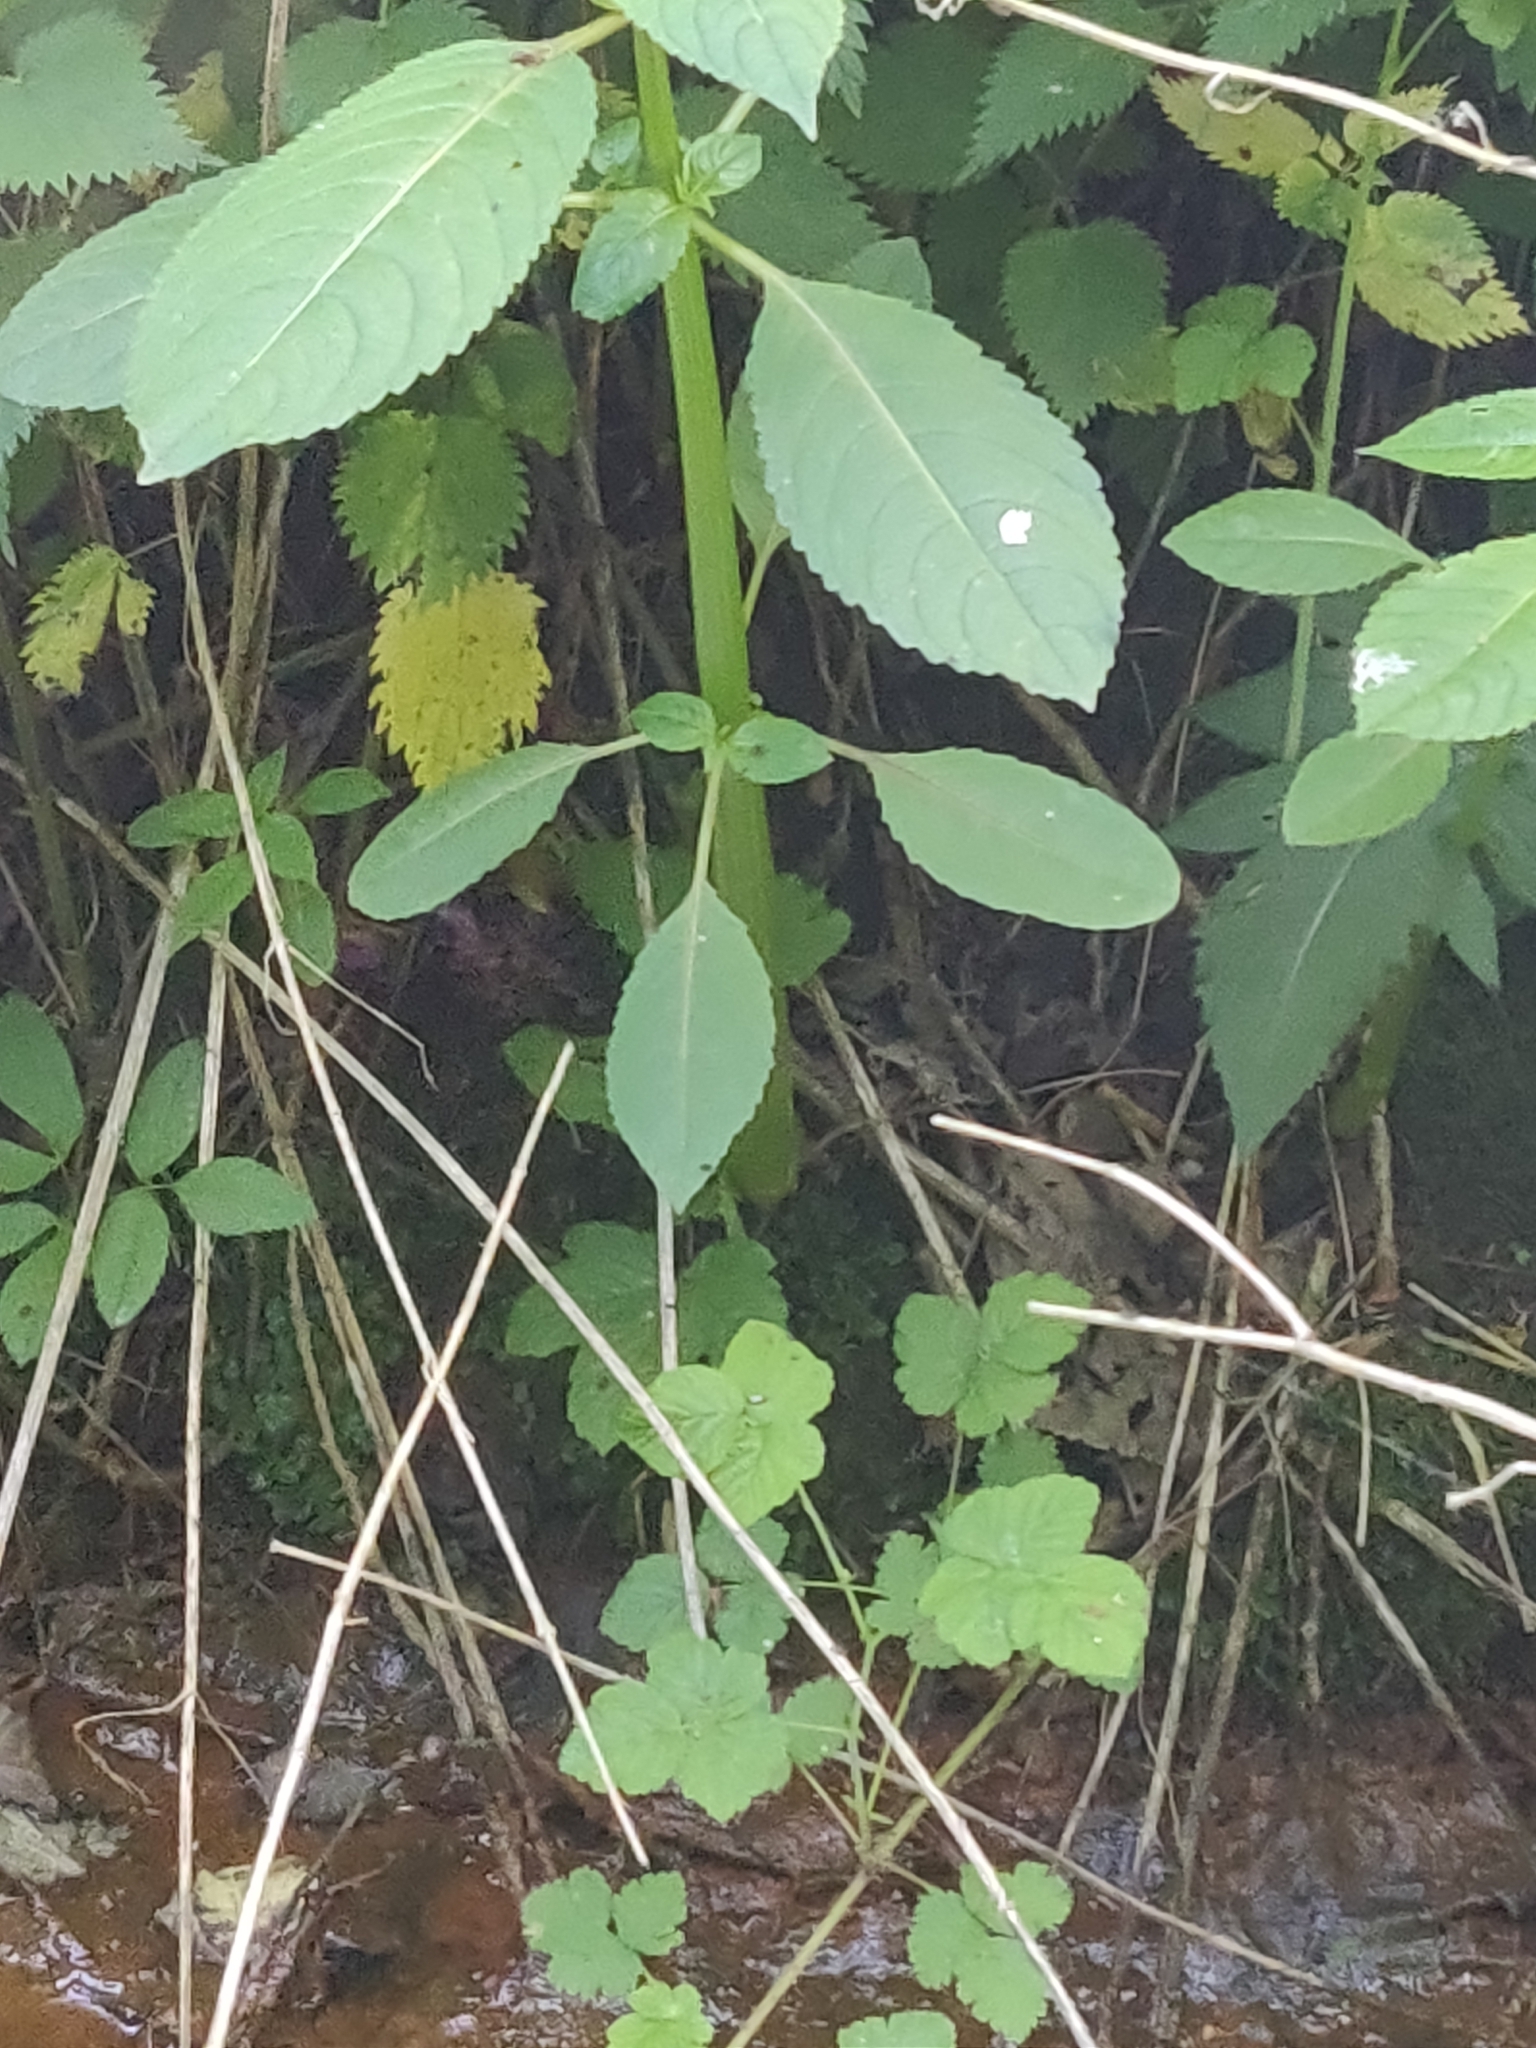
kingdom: Plantae
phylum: Tracheophyta
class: Magnoliopsida
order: Ericales
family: Balsaminaceae
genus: Impatiens
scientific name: Impatiens glandulifera
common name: Himalayan balsam
